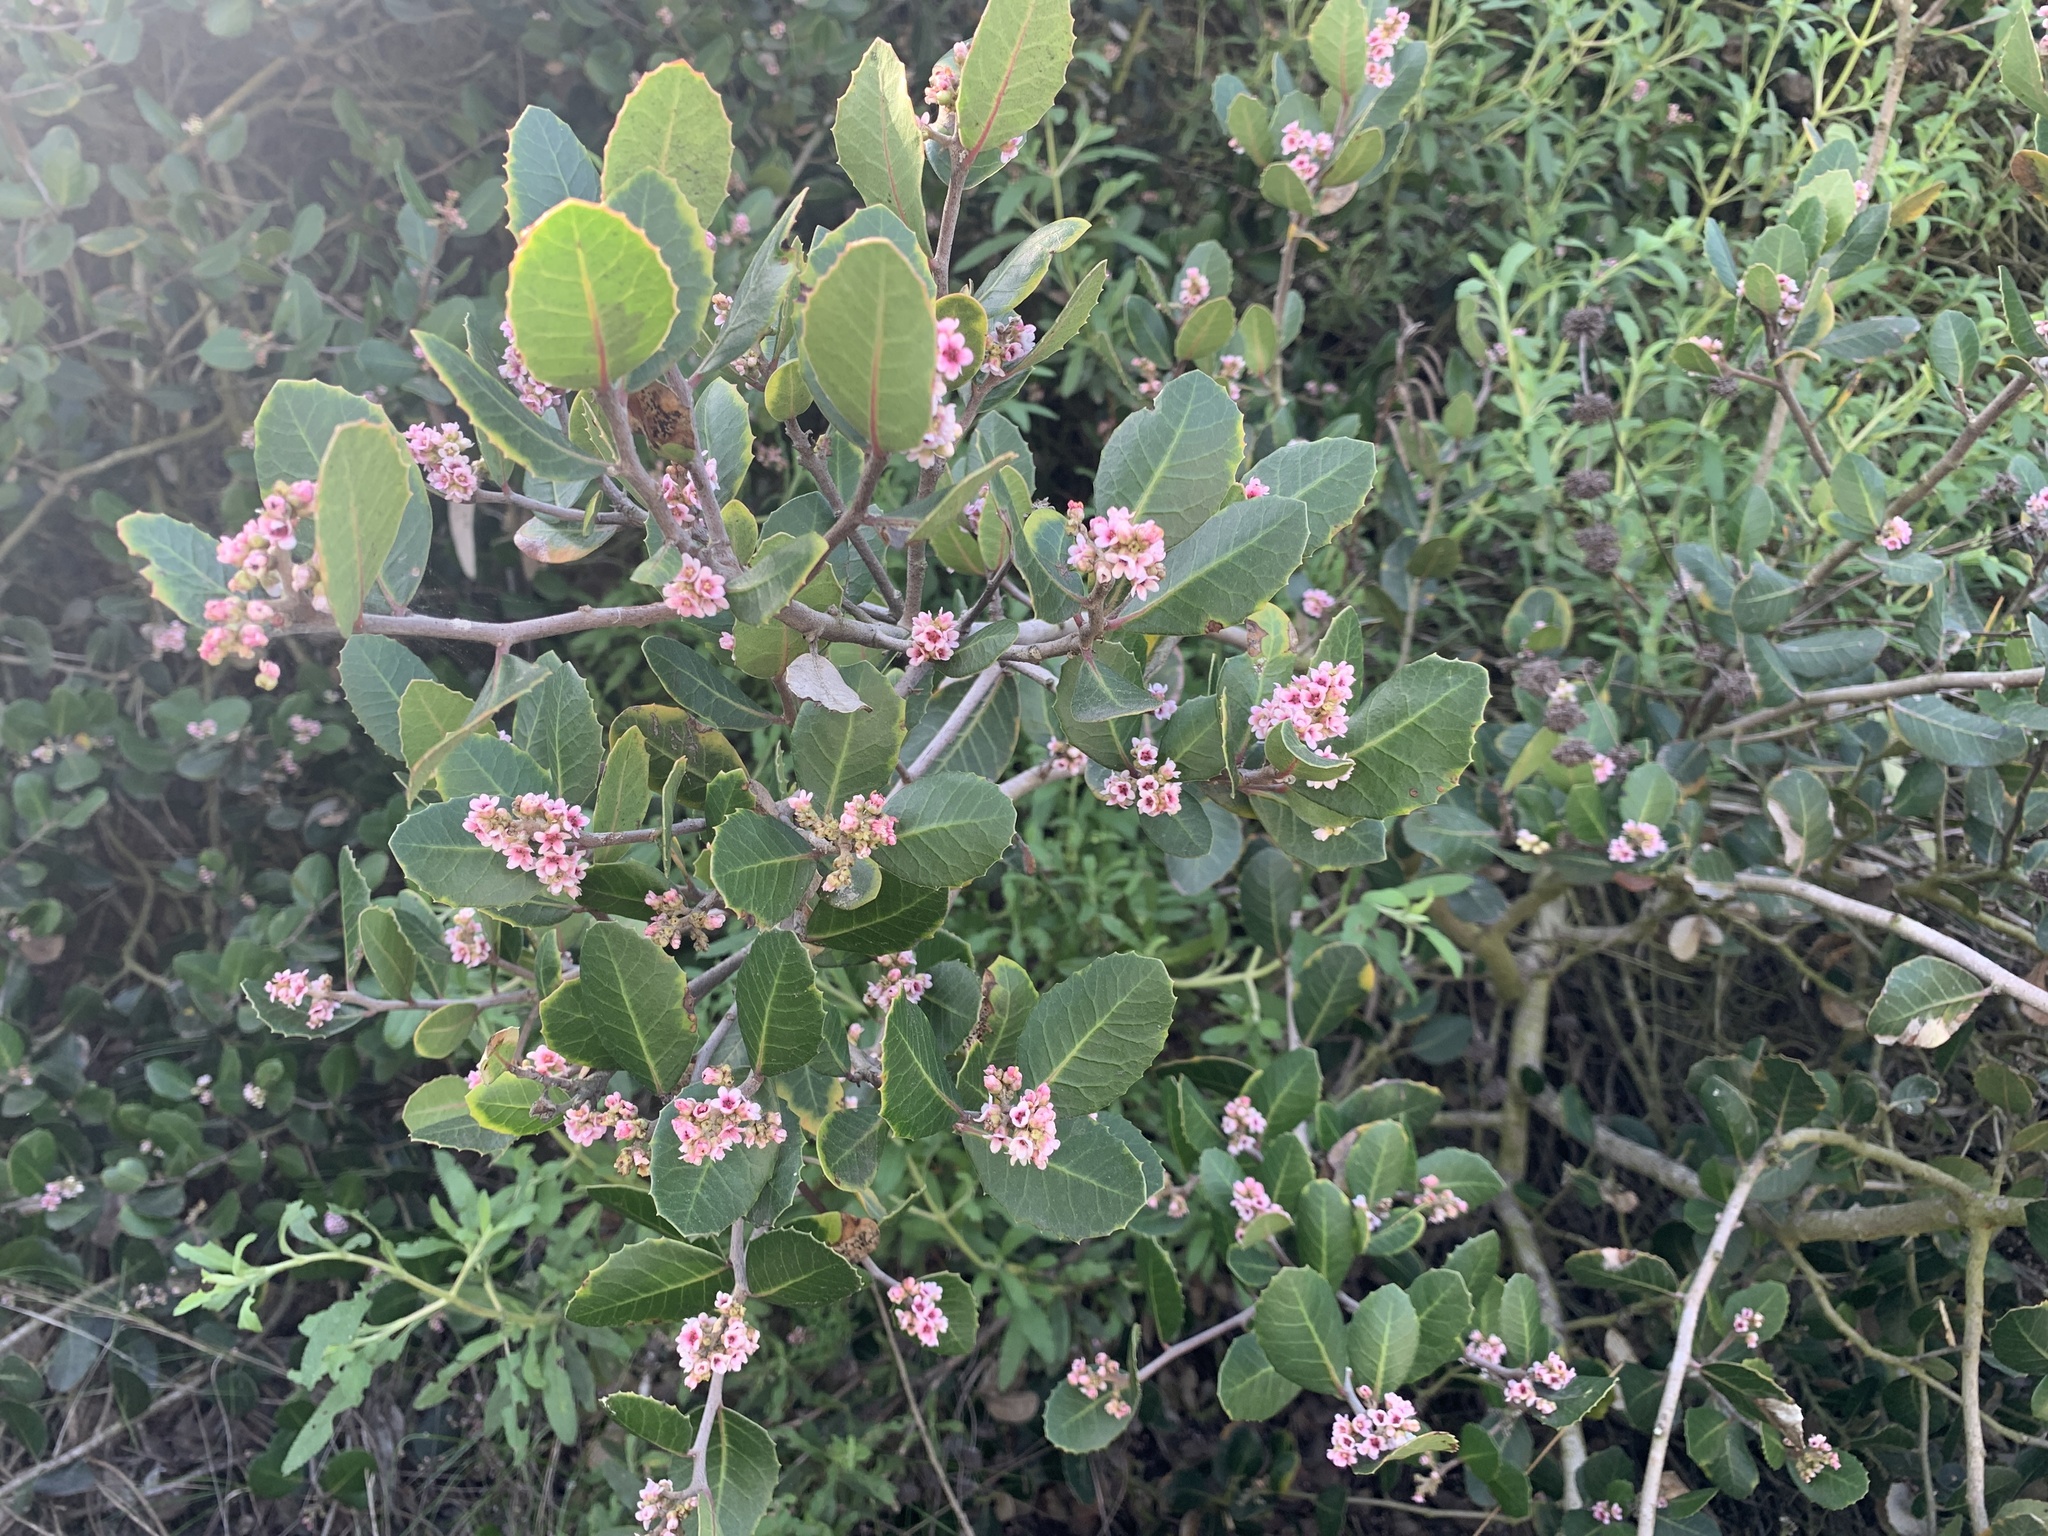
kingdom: Plantae
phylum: Tracheophyta
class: Magnoliopsida
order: Sapindales
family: Anacardiaceae
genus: Rhus
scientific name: Rhus integrifolia
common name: Lemonade sumac
